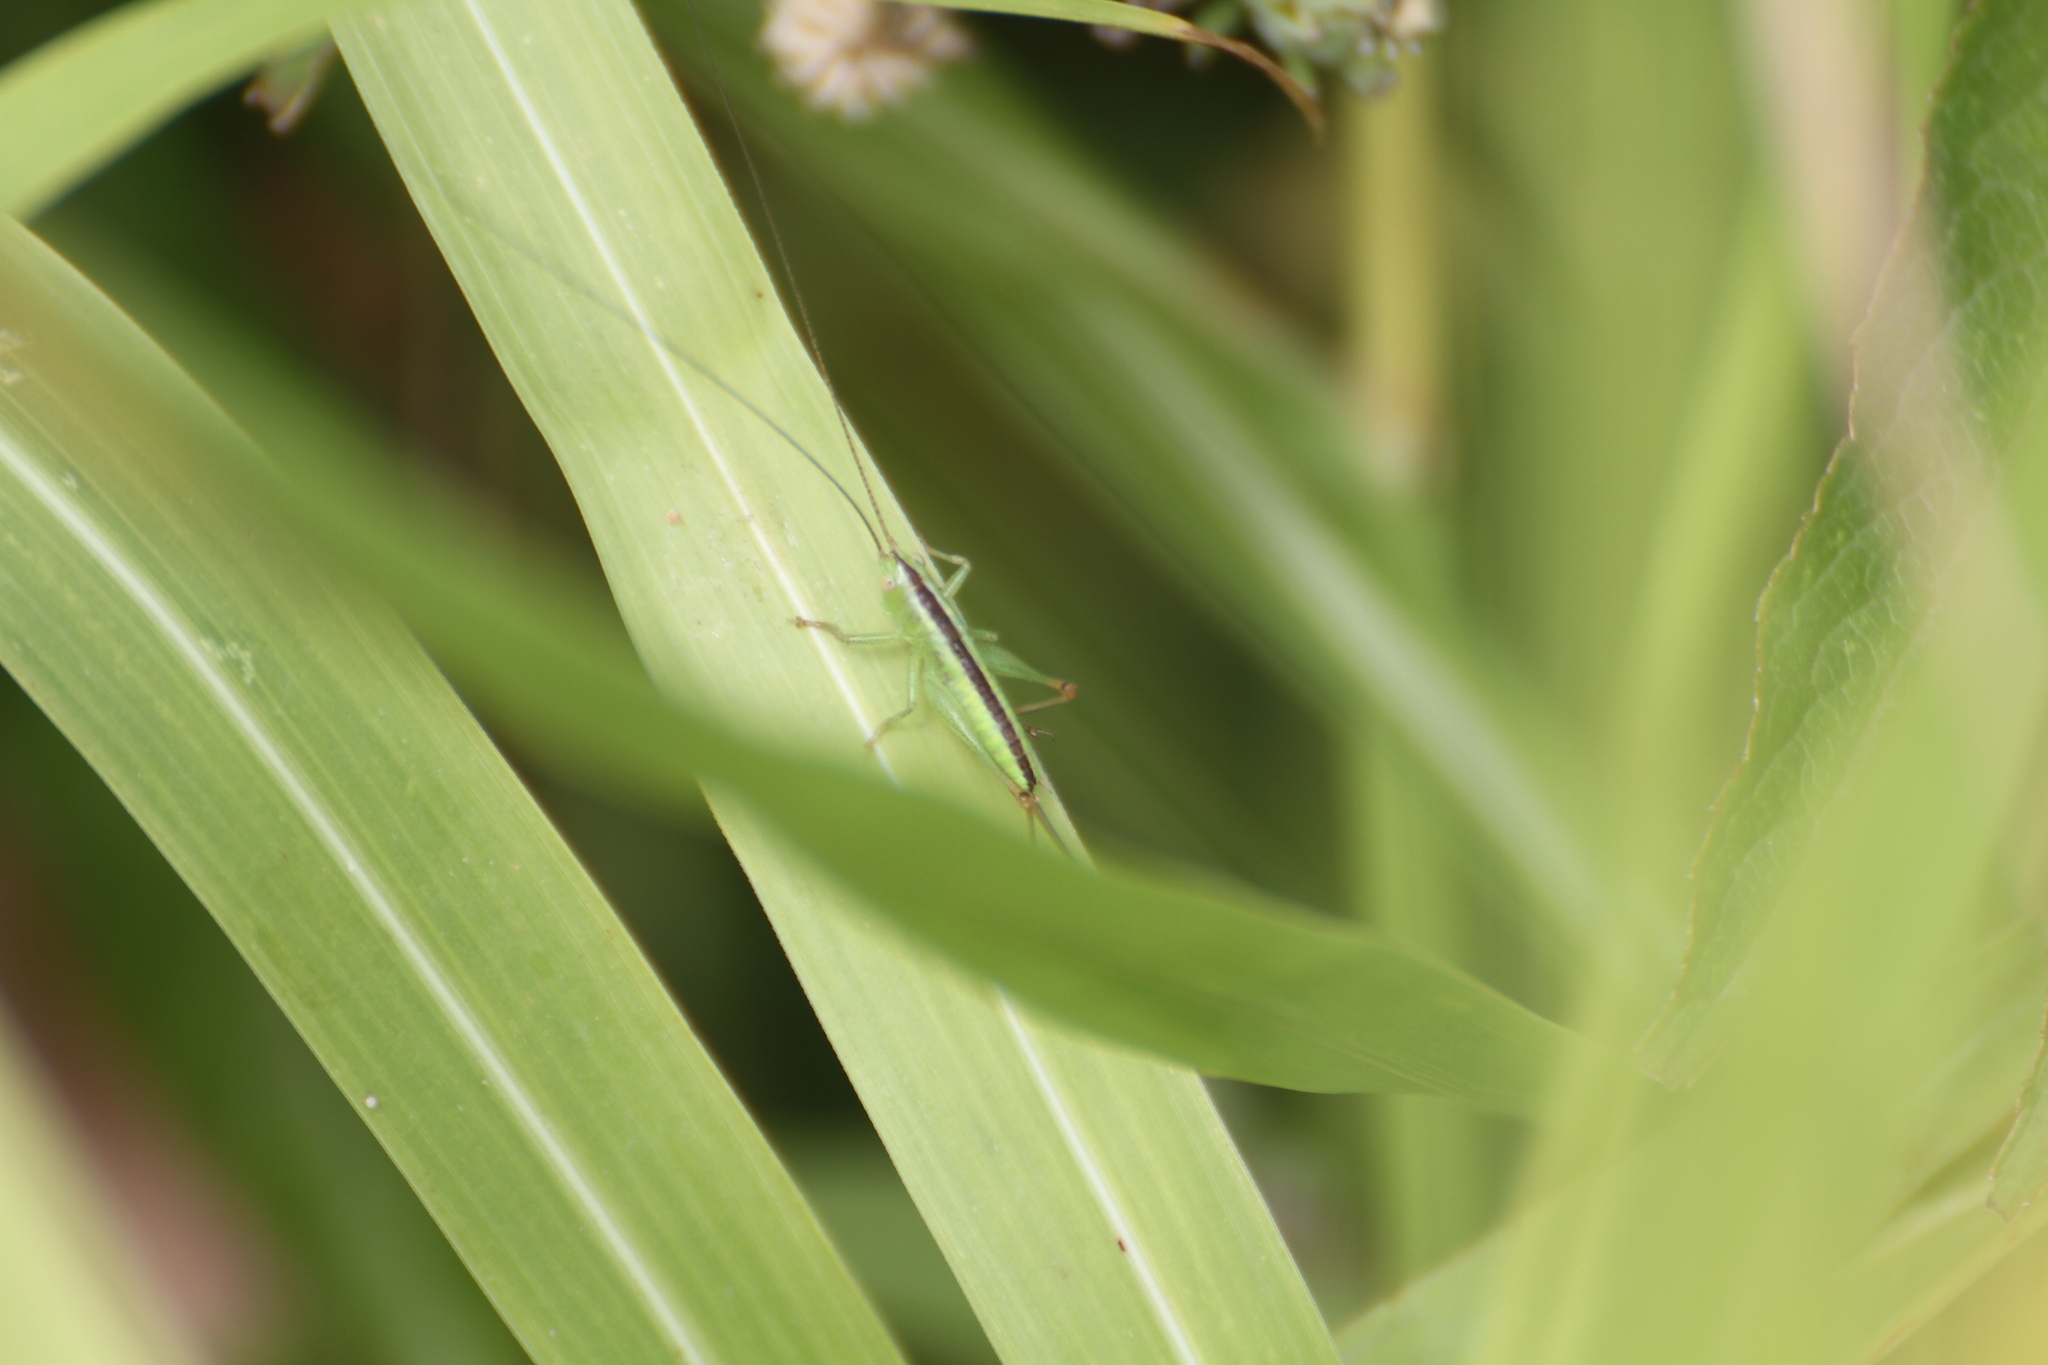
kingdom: Animalia
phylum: Arthropoda
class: Insecta
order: Orthoptera
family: Tettigoniidae
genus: Conocephalus
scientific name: Conocephalus fuscus
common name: Long-winged conehead
